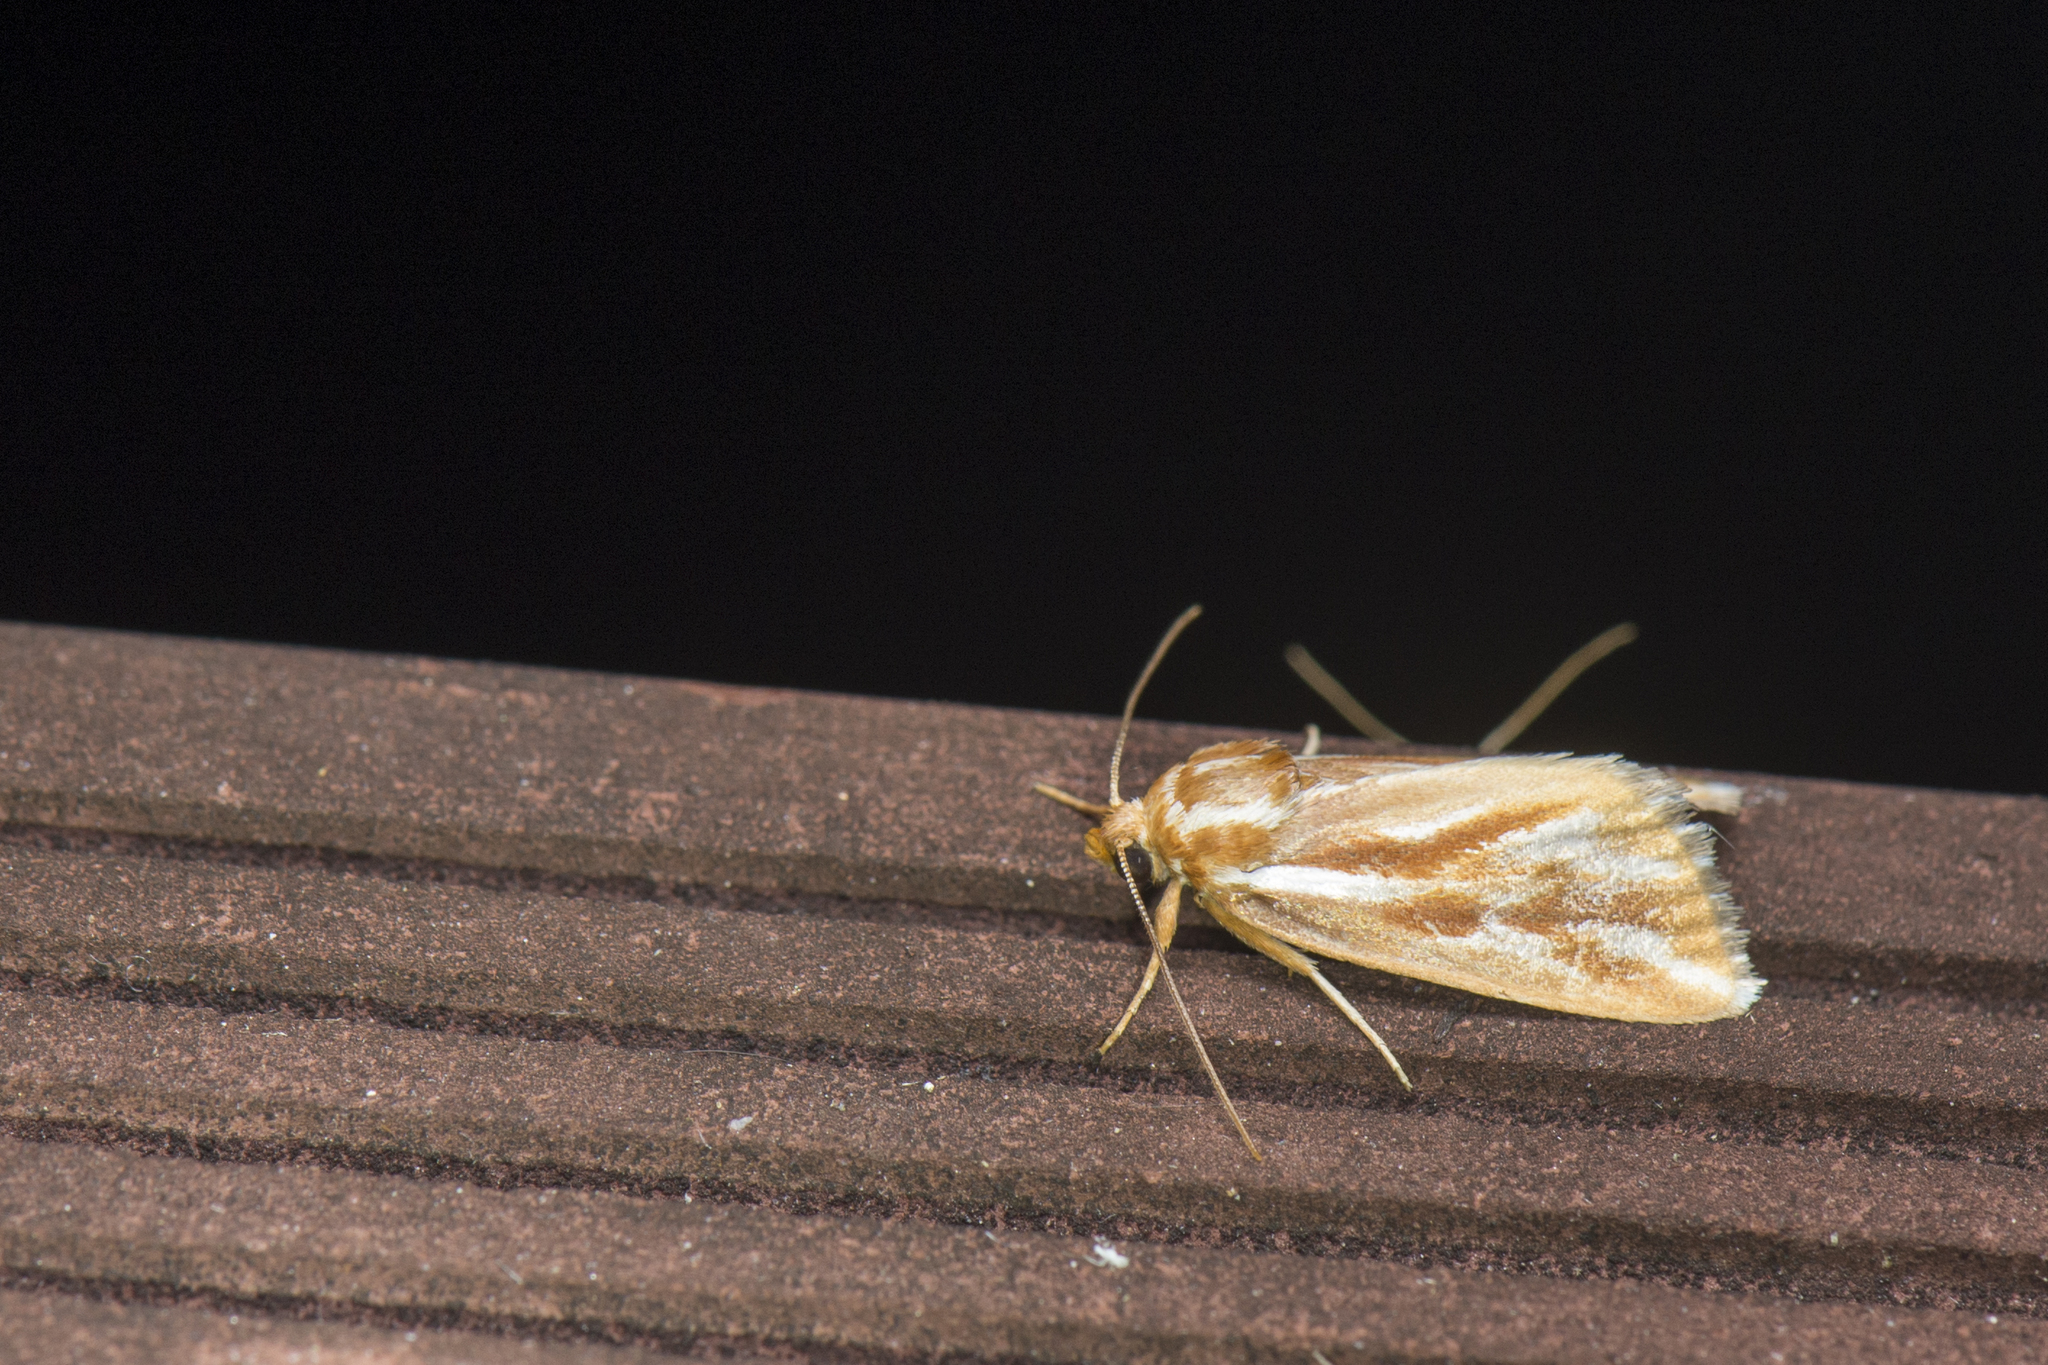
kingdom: Animalia
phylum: Arthropoda
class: Insecta
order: Lepidoptera
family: Noctuidae
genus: Narangodes
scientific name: Narangodes confluens
